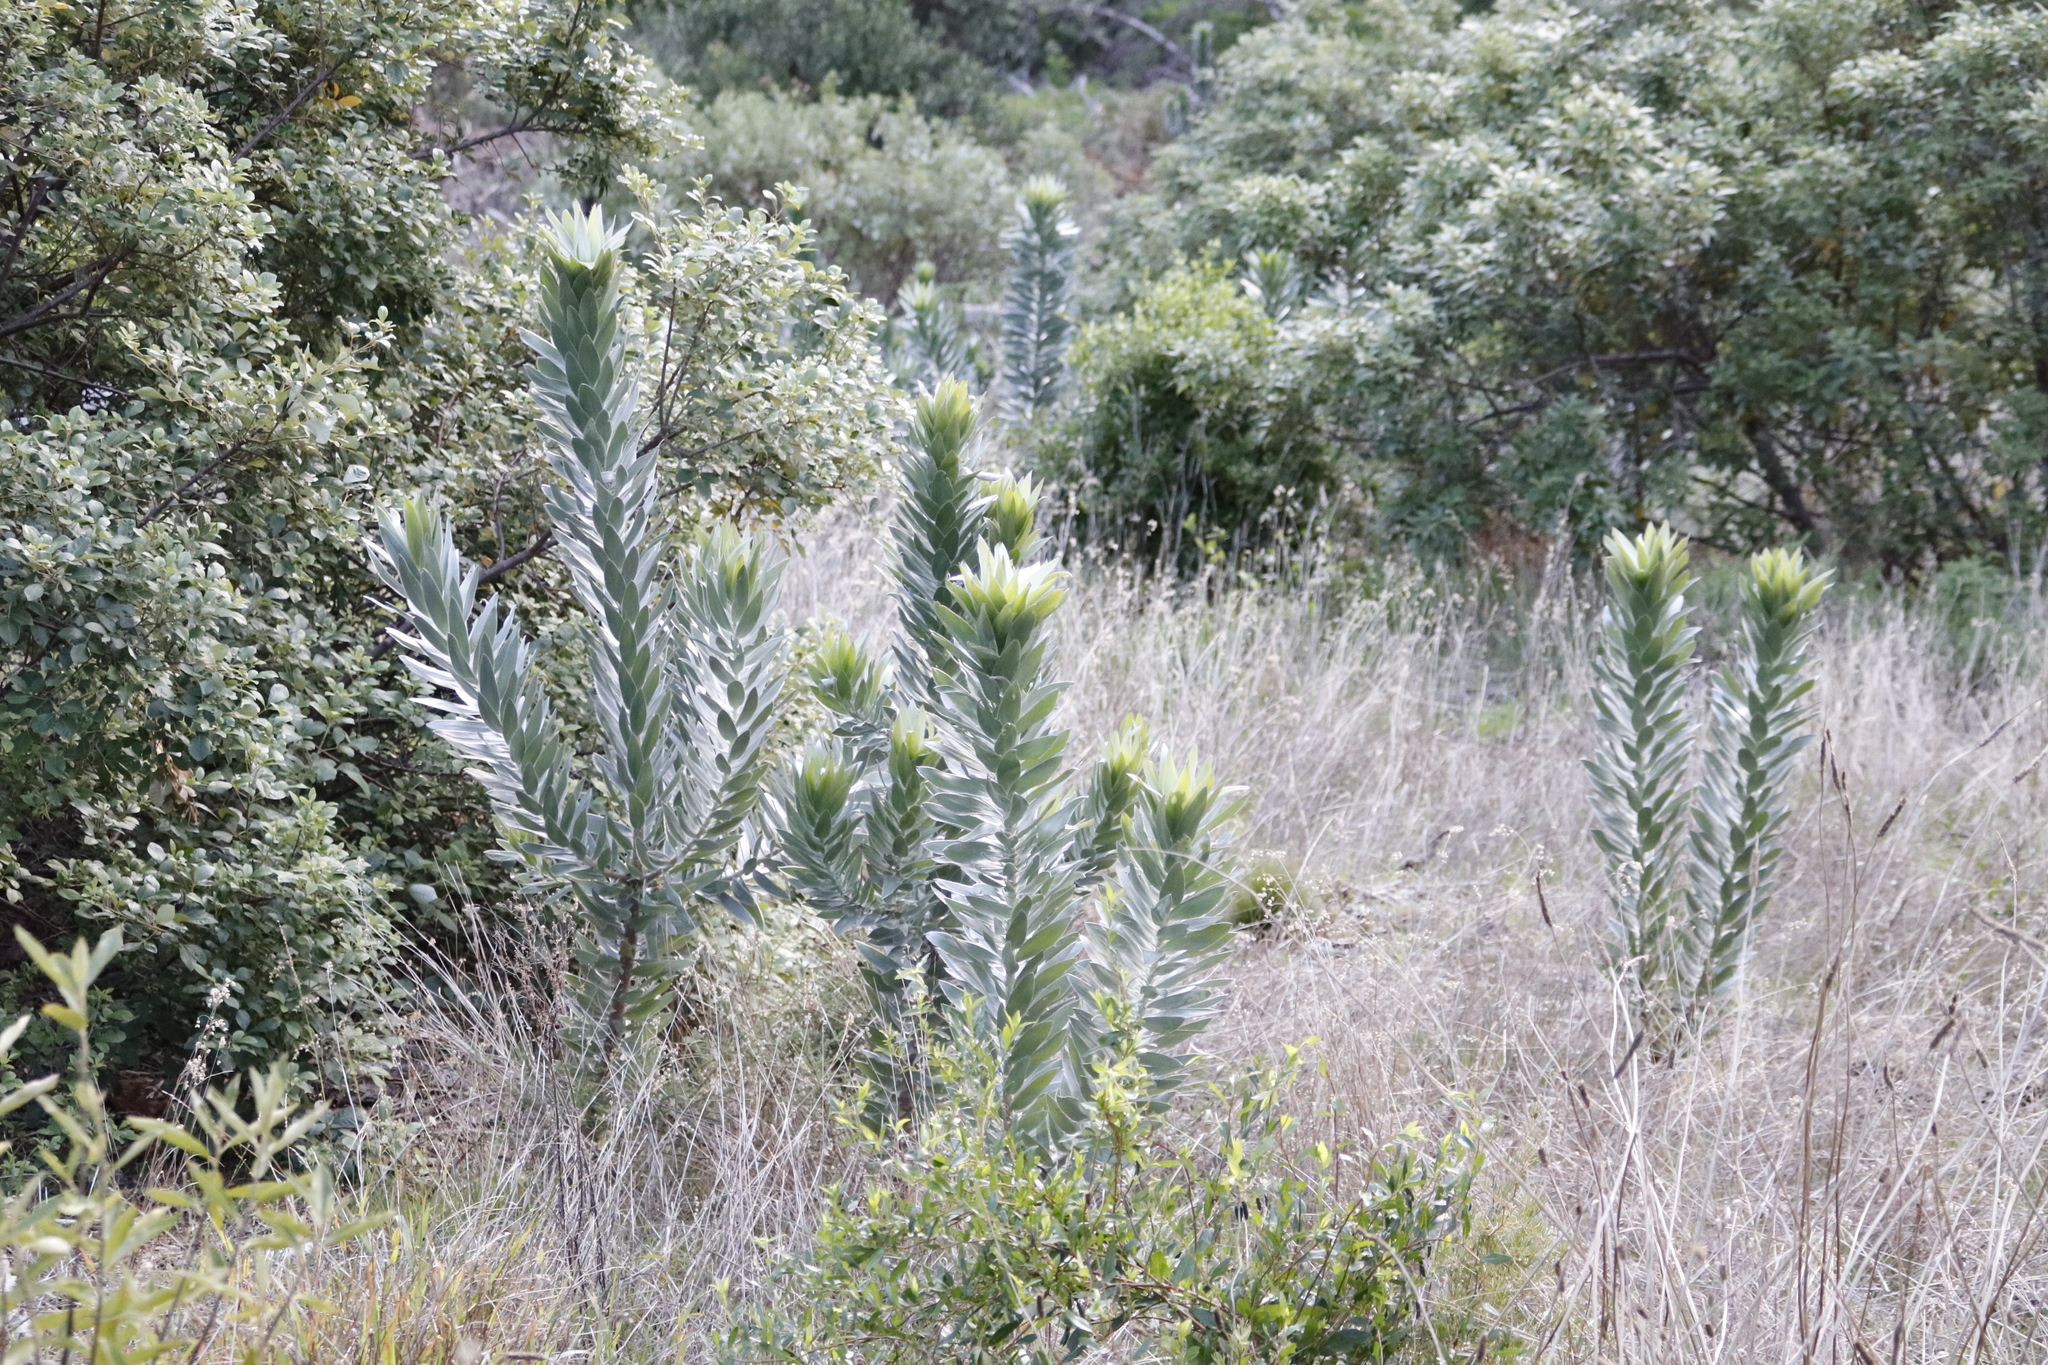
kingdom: Plantae
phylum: Tracheophyta
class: Magnoliopsida
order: Proteales
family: Proteaceae
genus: Leucadendron
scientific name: Leucadendron argenteum
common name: Cape silver tree
